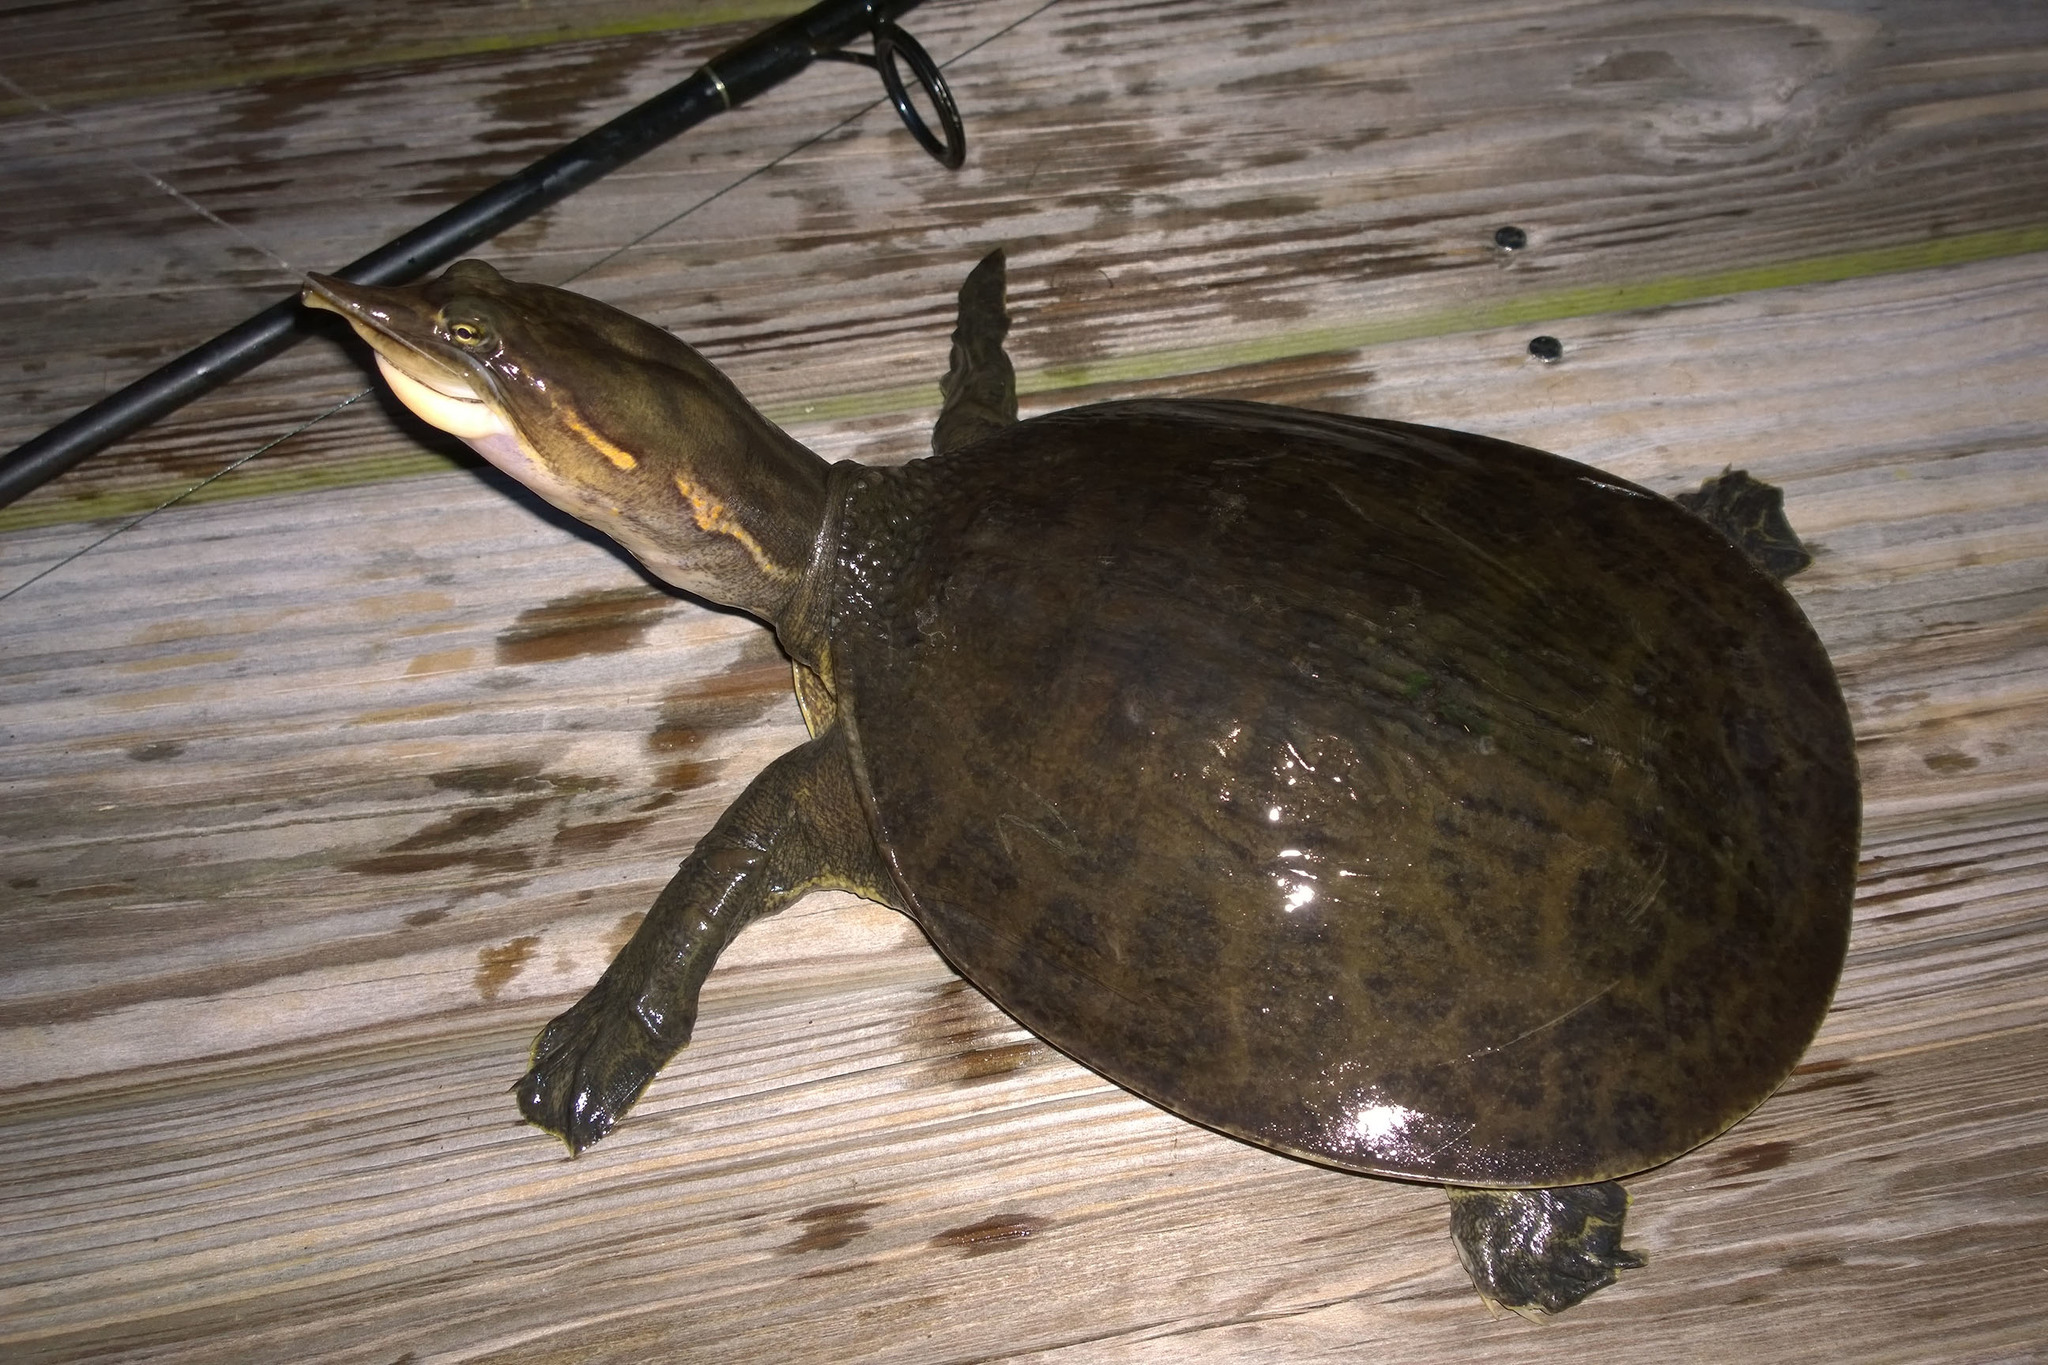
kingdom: Animalia
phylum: Chordata
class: Testudines
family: Trionychidae
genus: Apalone
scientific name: Apalone ferox
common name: Florida softshell turtle
